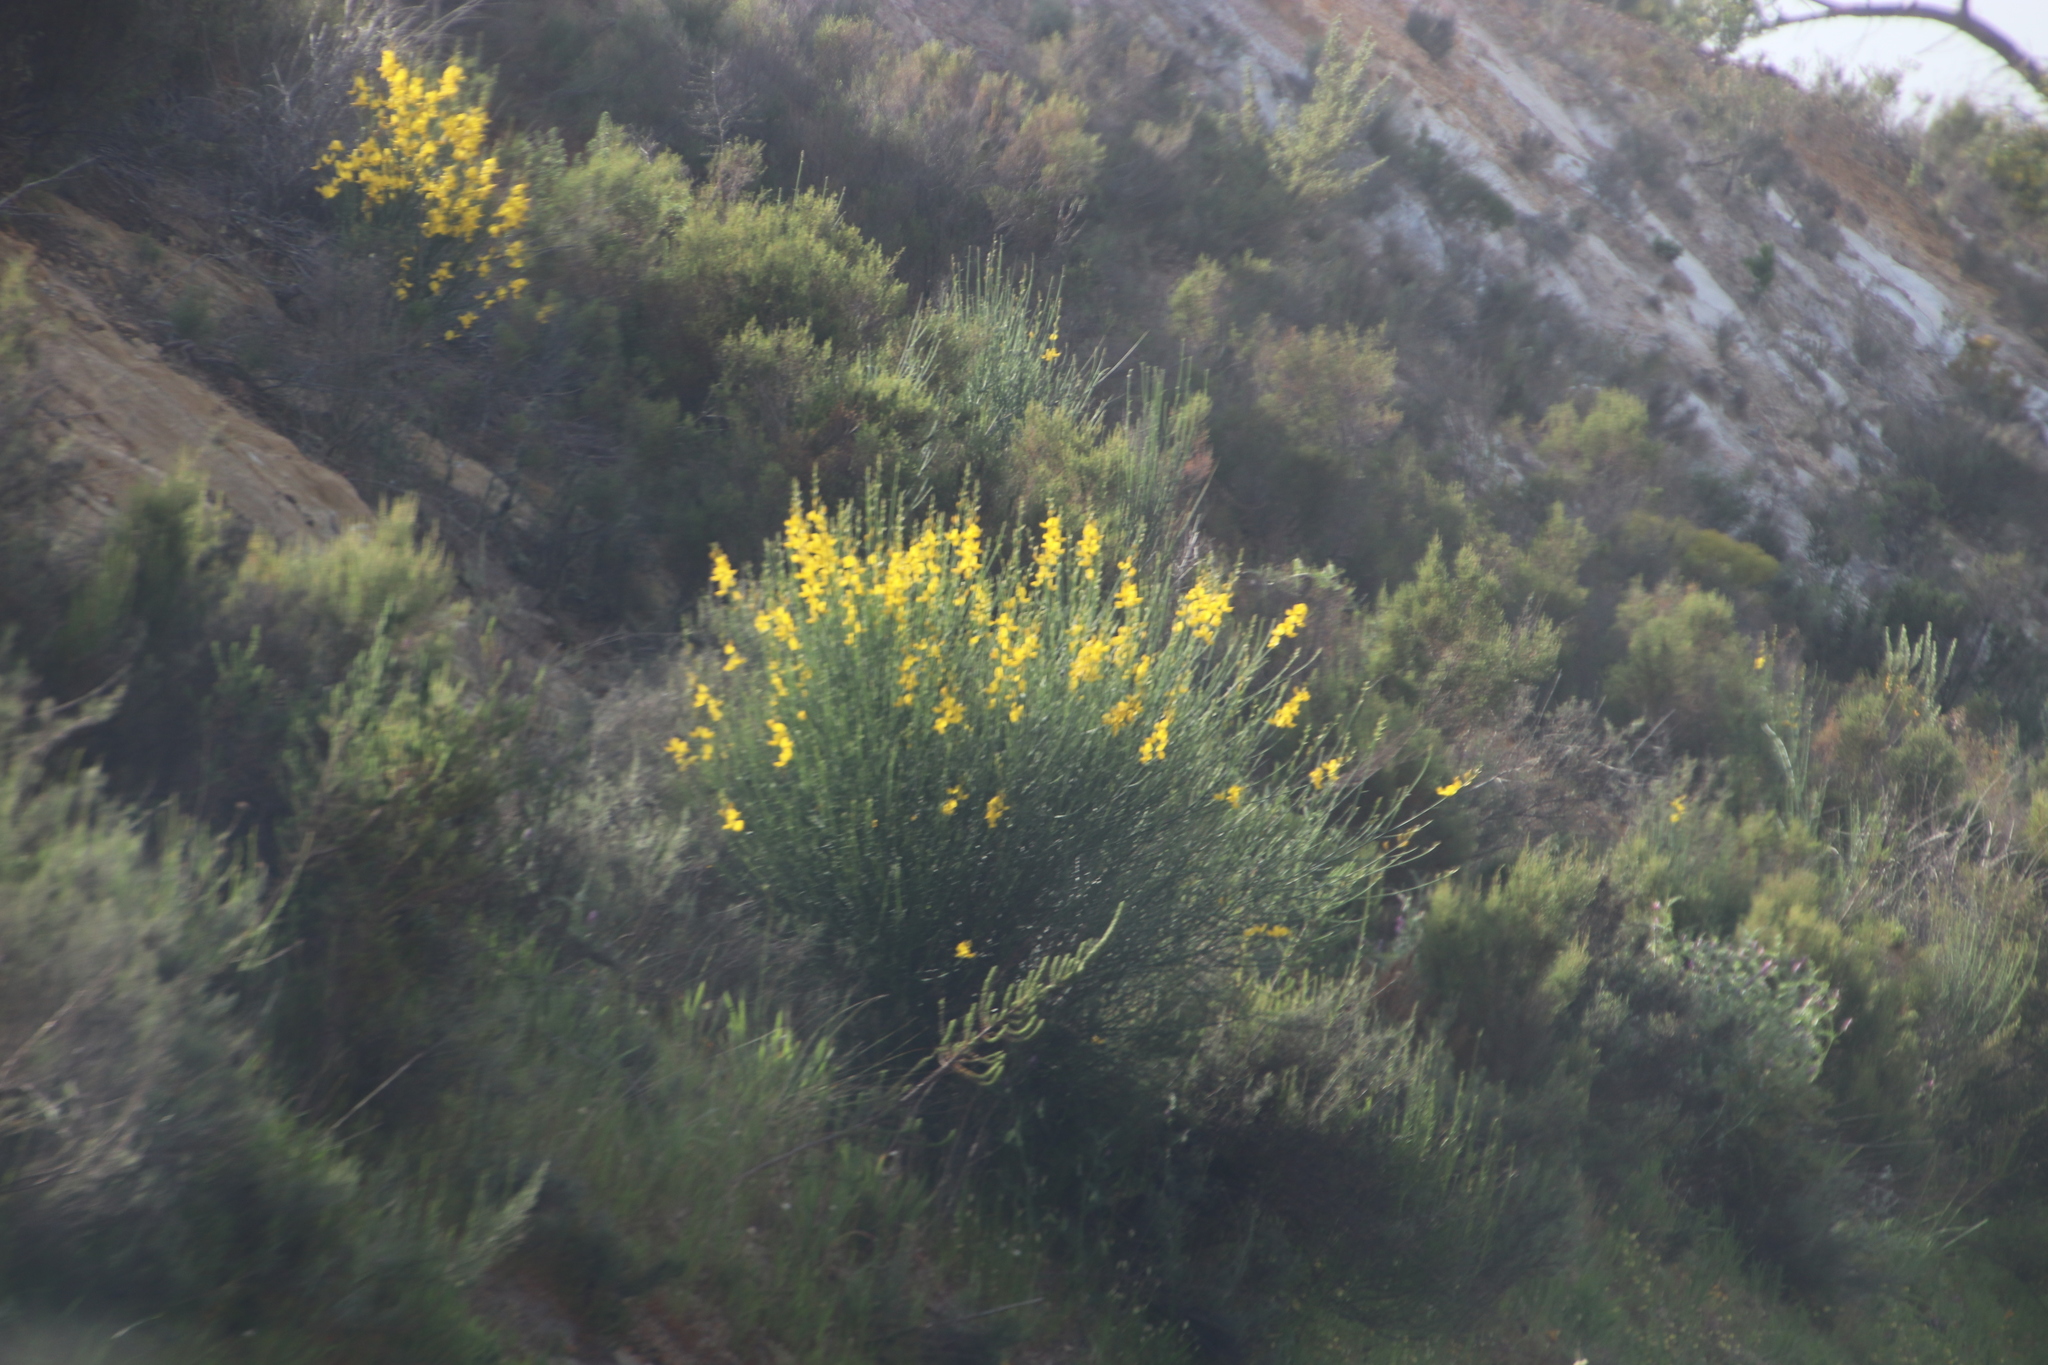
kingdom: Plantae
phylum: Tracheophyta
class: Magnoliopsida
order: Fabales
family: Fabaceae
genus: Spartium
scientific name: Spartium junceum
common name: Spanish broom
